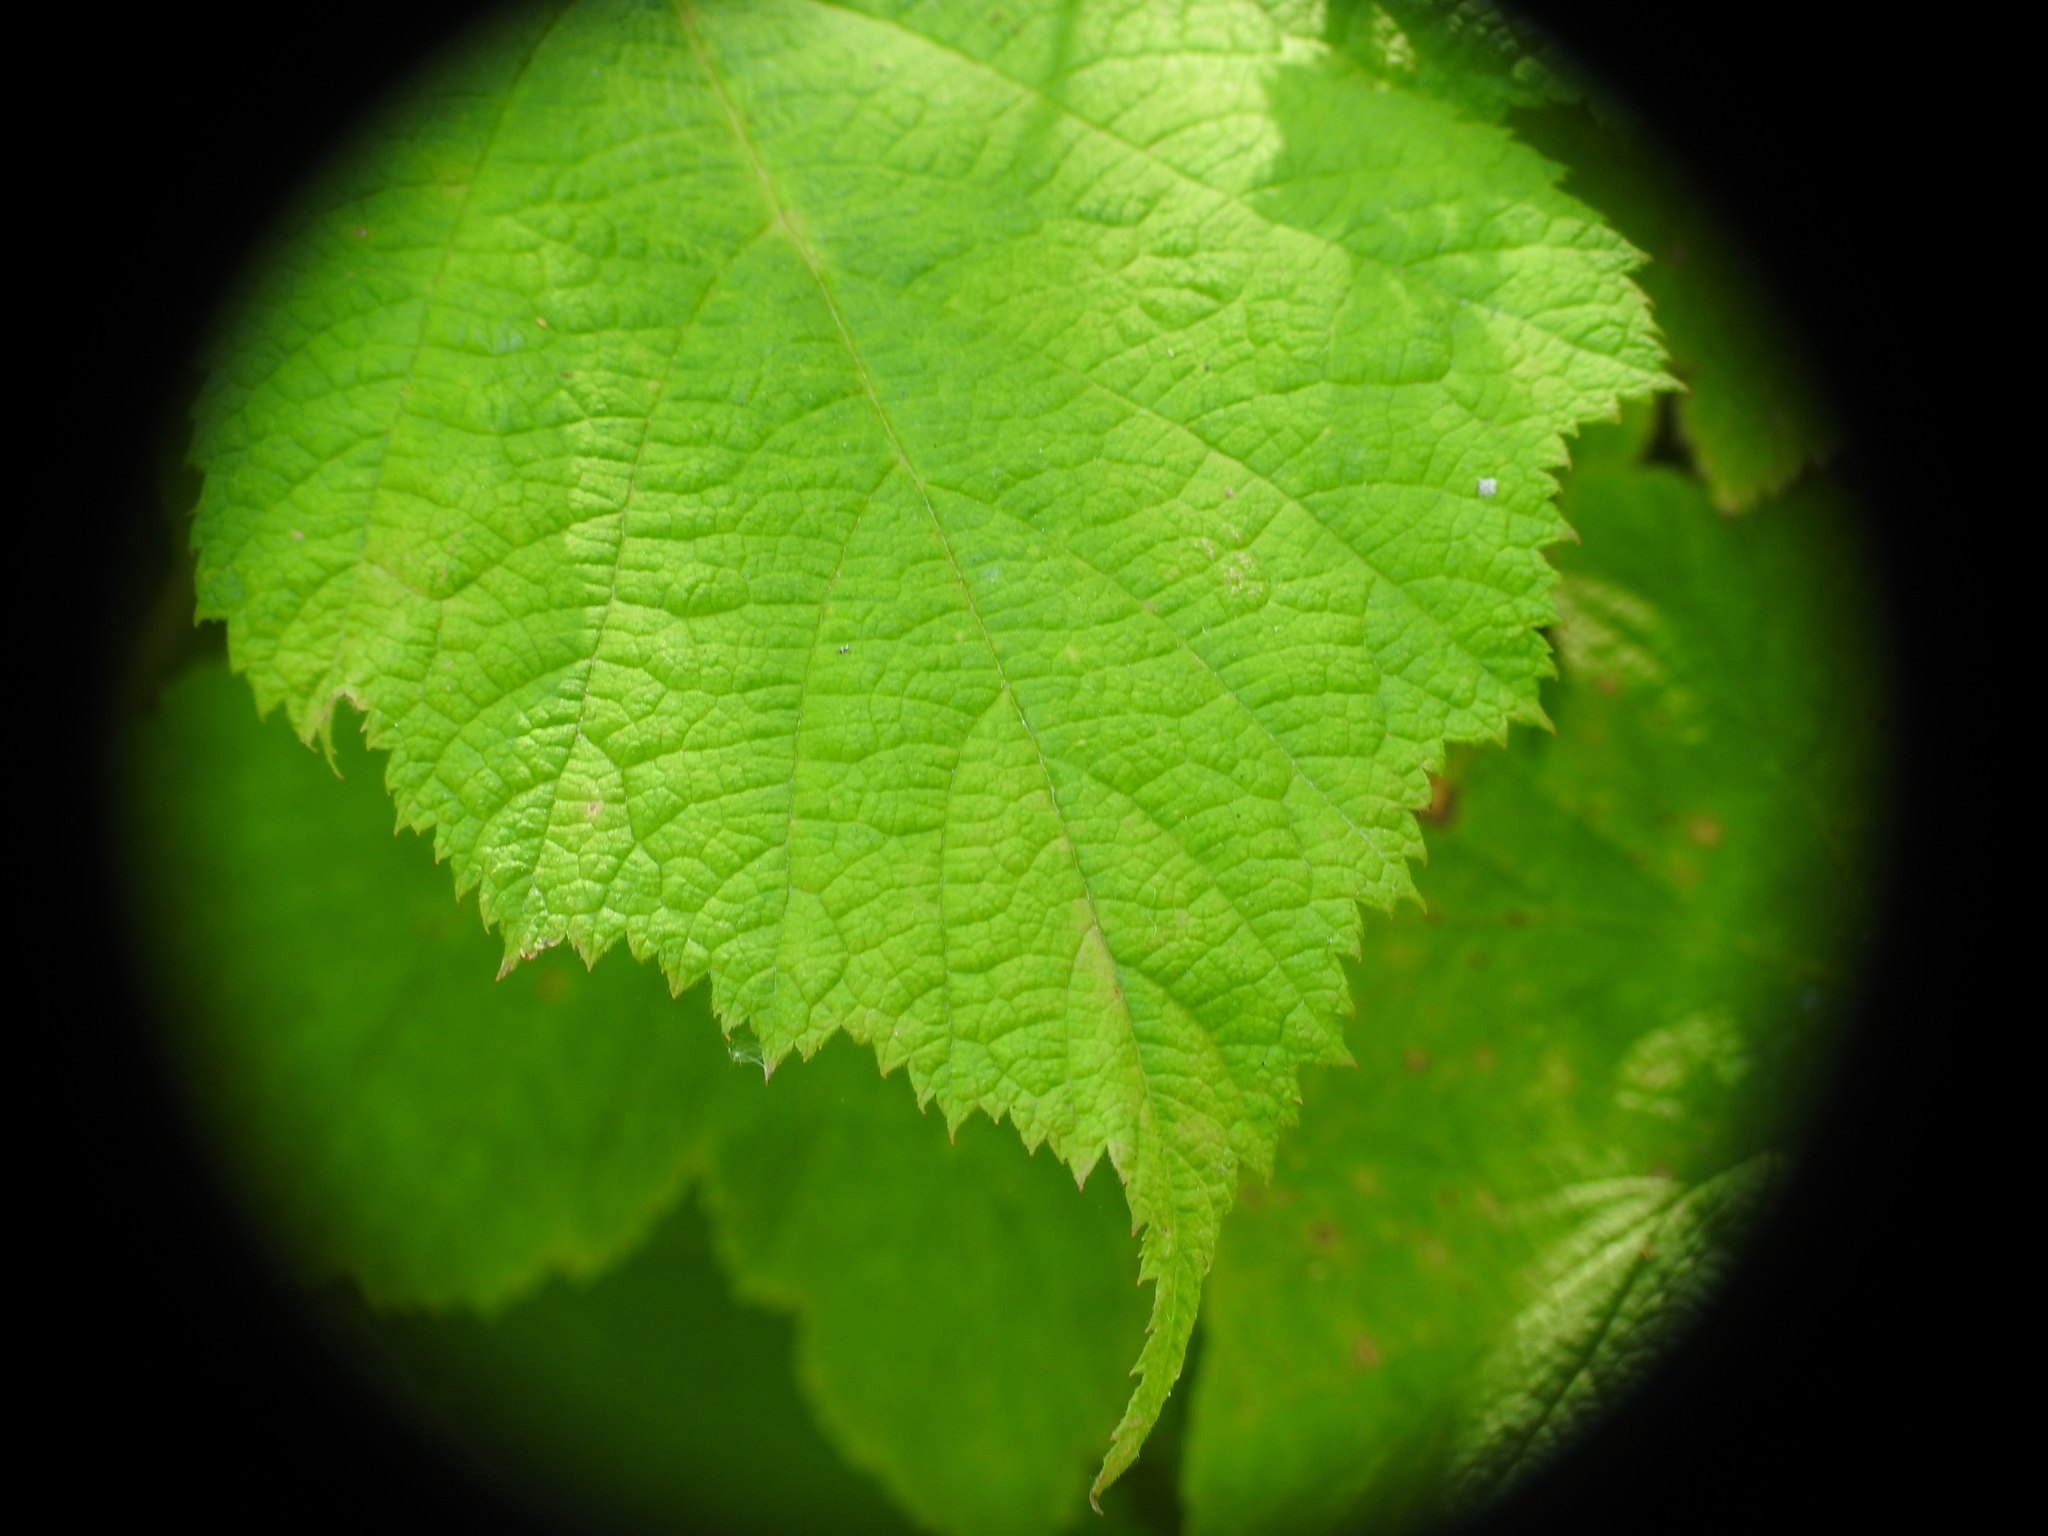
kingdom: Plantae
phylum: Tracheophyta
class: Magnoliopsida
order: Rosales
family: Rosaceae
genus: Rubus
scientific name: Rubus parviflorus
